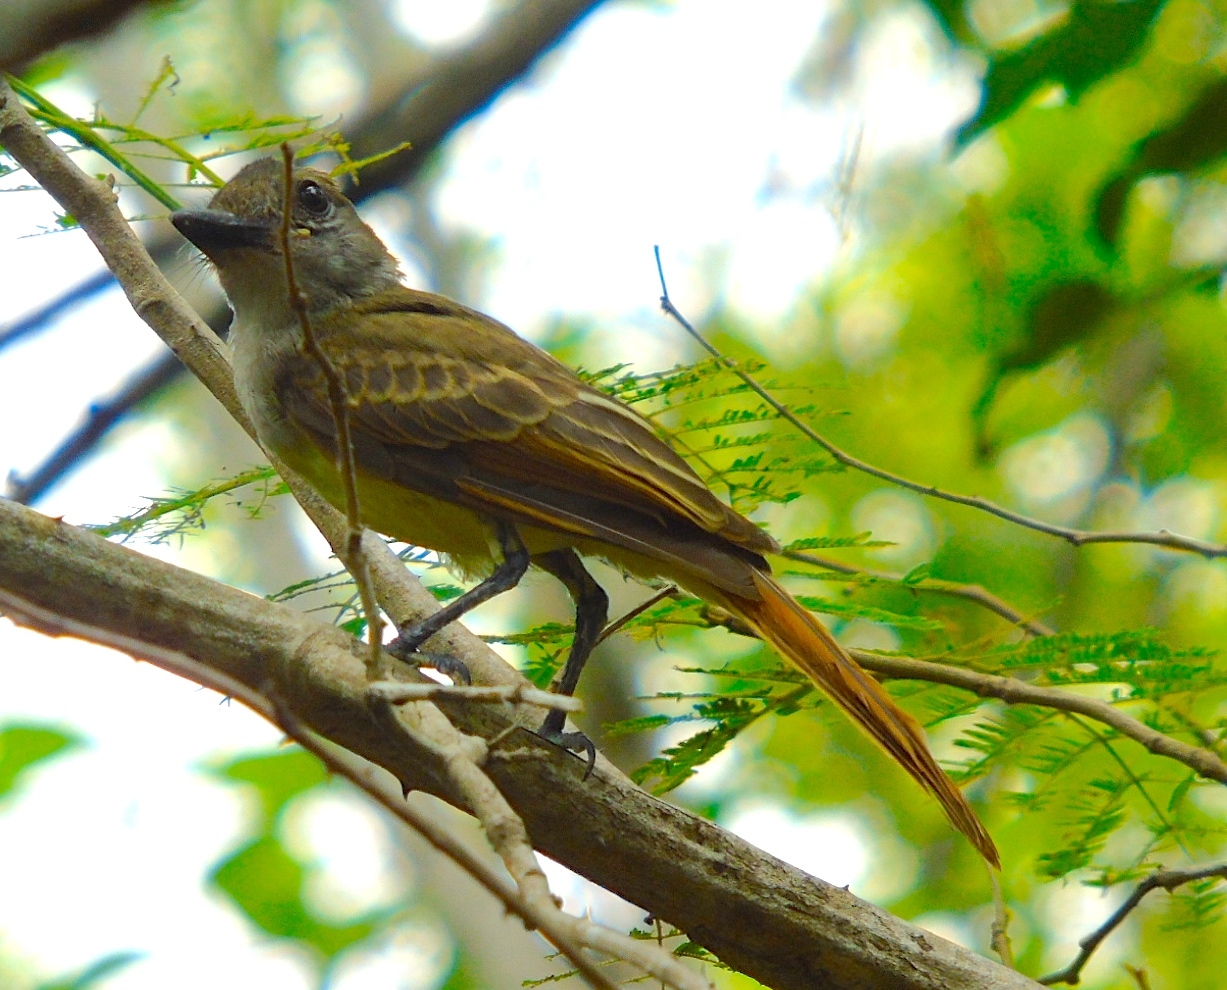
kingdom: Animalia
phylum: Chordata
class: Aves
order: Passeriformes
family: Tyrannidae
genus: Myiarchus
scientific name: Myiarchus
